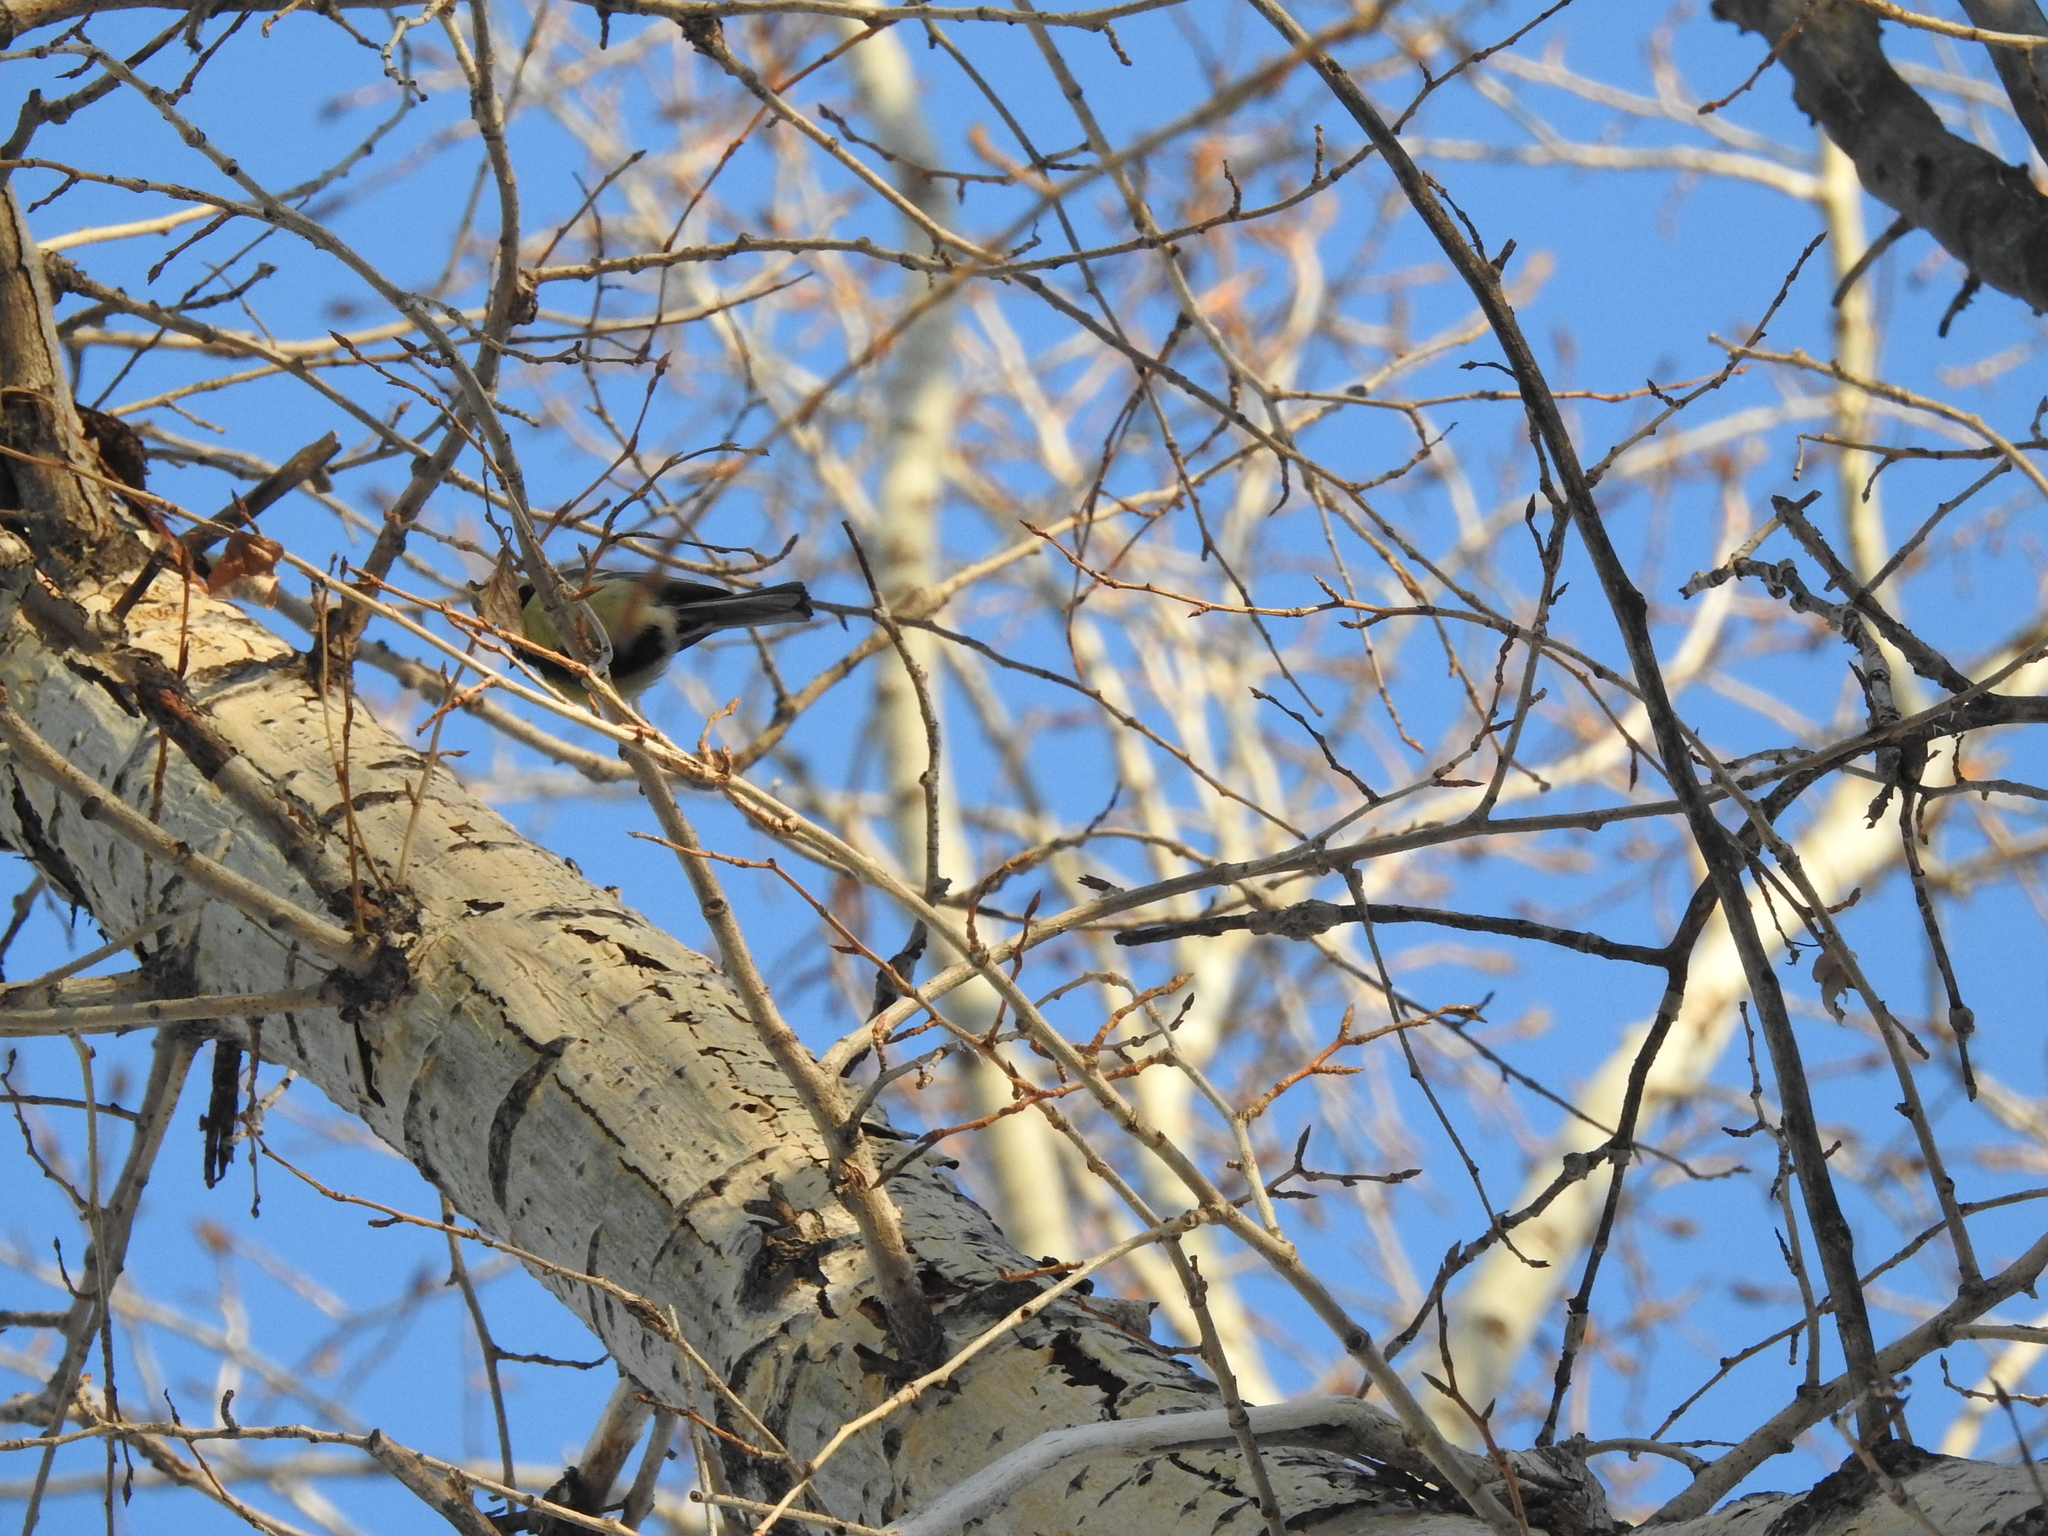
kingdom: Animalia
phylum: Chordata
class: Aves
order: Passeriformes
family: Paridae
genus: Parus
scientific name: Parus major
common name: Great tit
